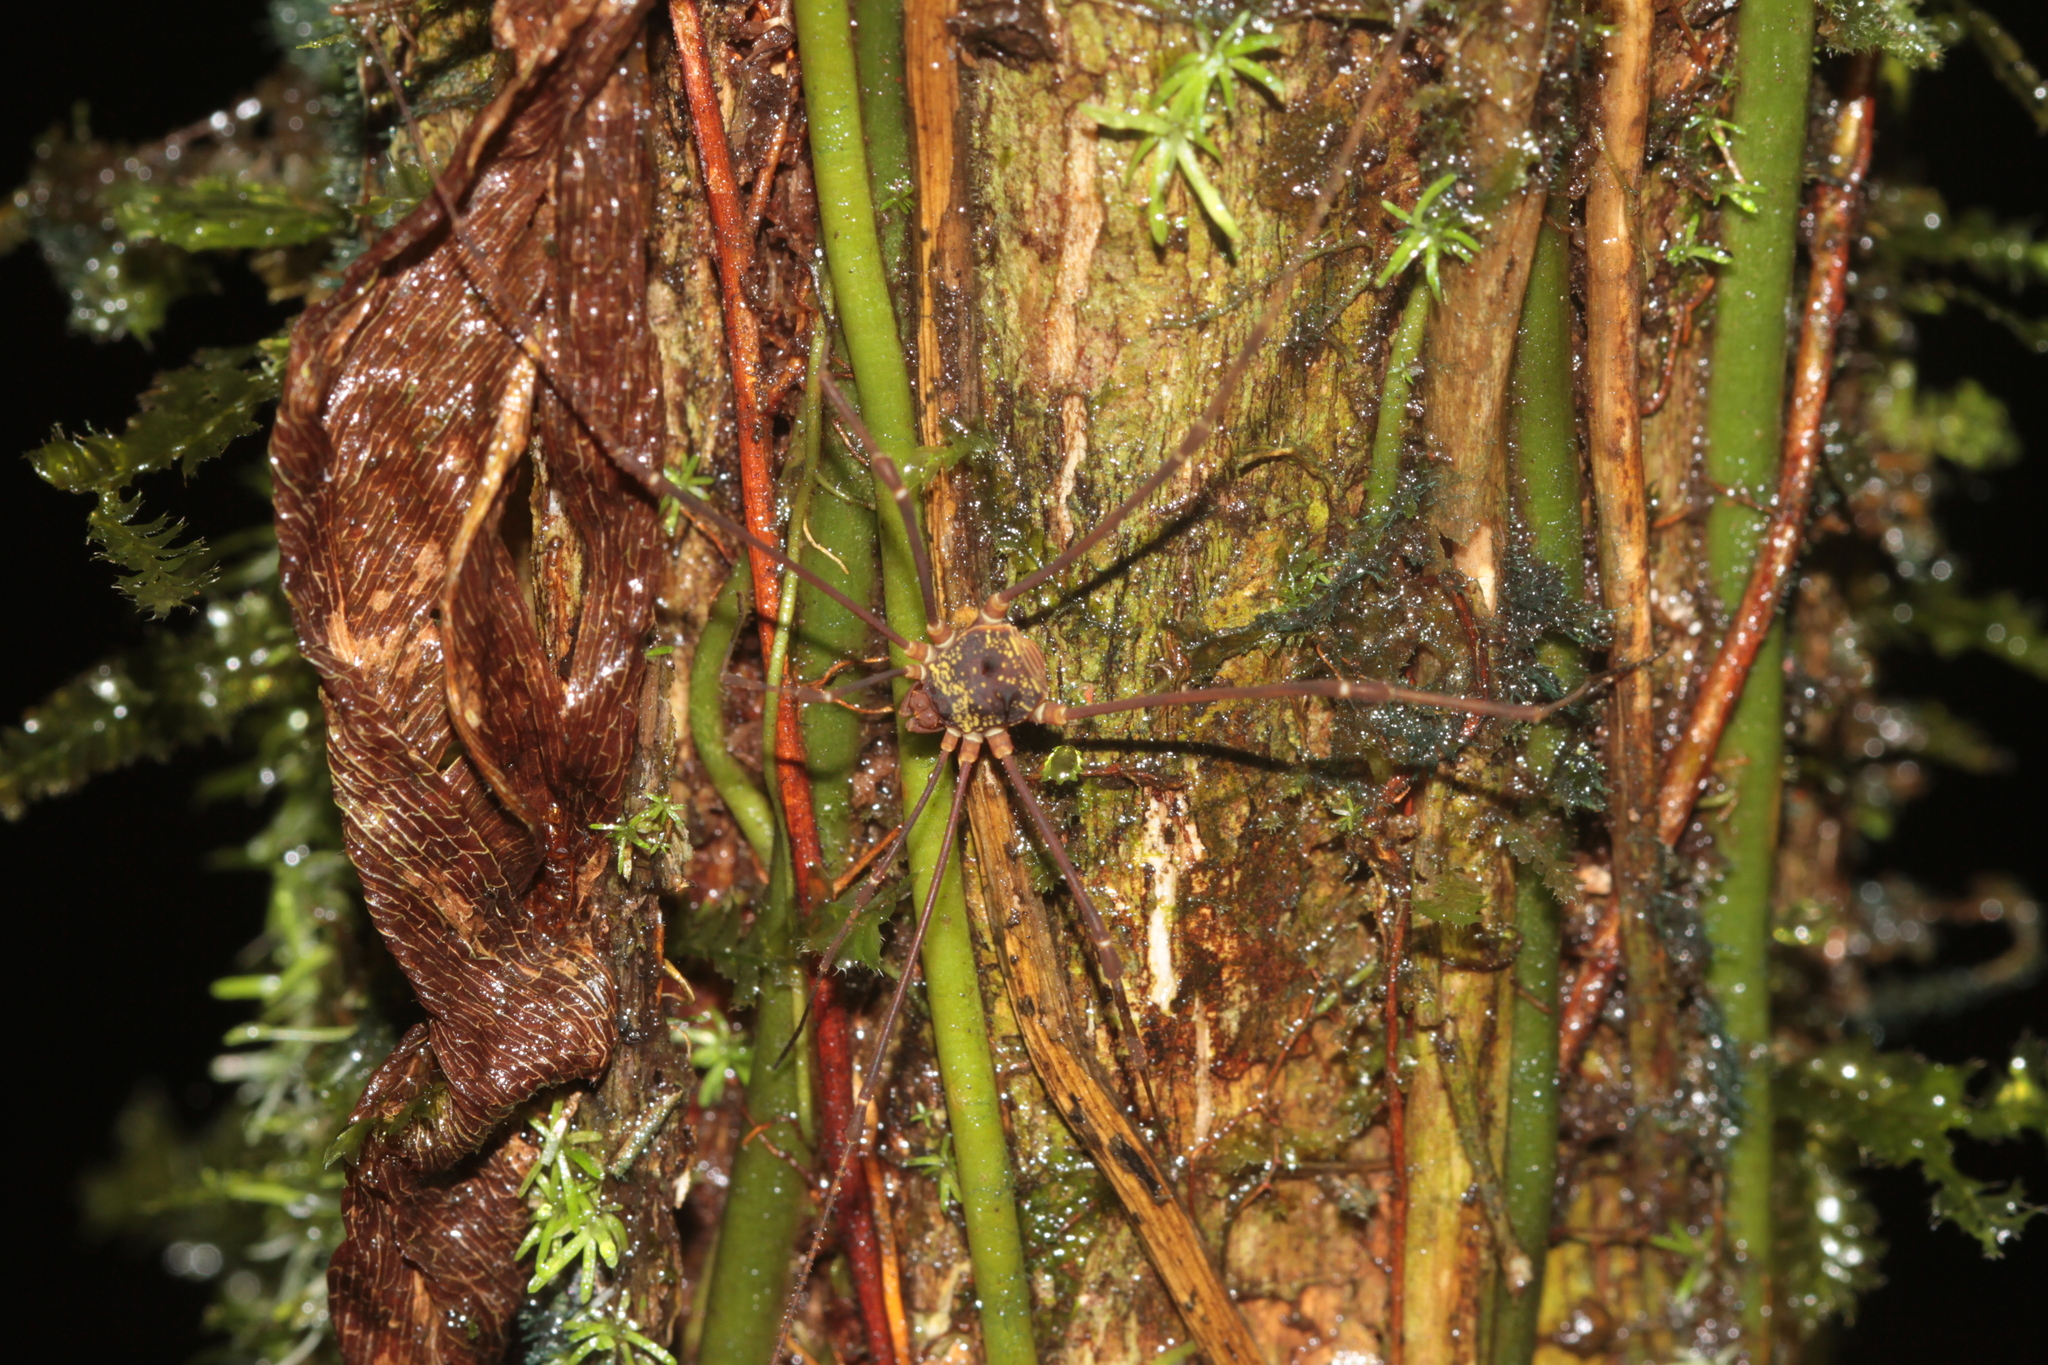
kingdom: Animalia
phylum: Arthropoda
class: Arachnida
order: Opiliones
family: Cosmetidae
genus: Paecilaema
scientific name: Paecilaema c-insignitum
